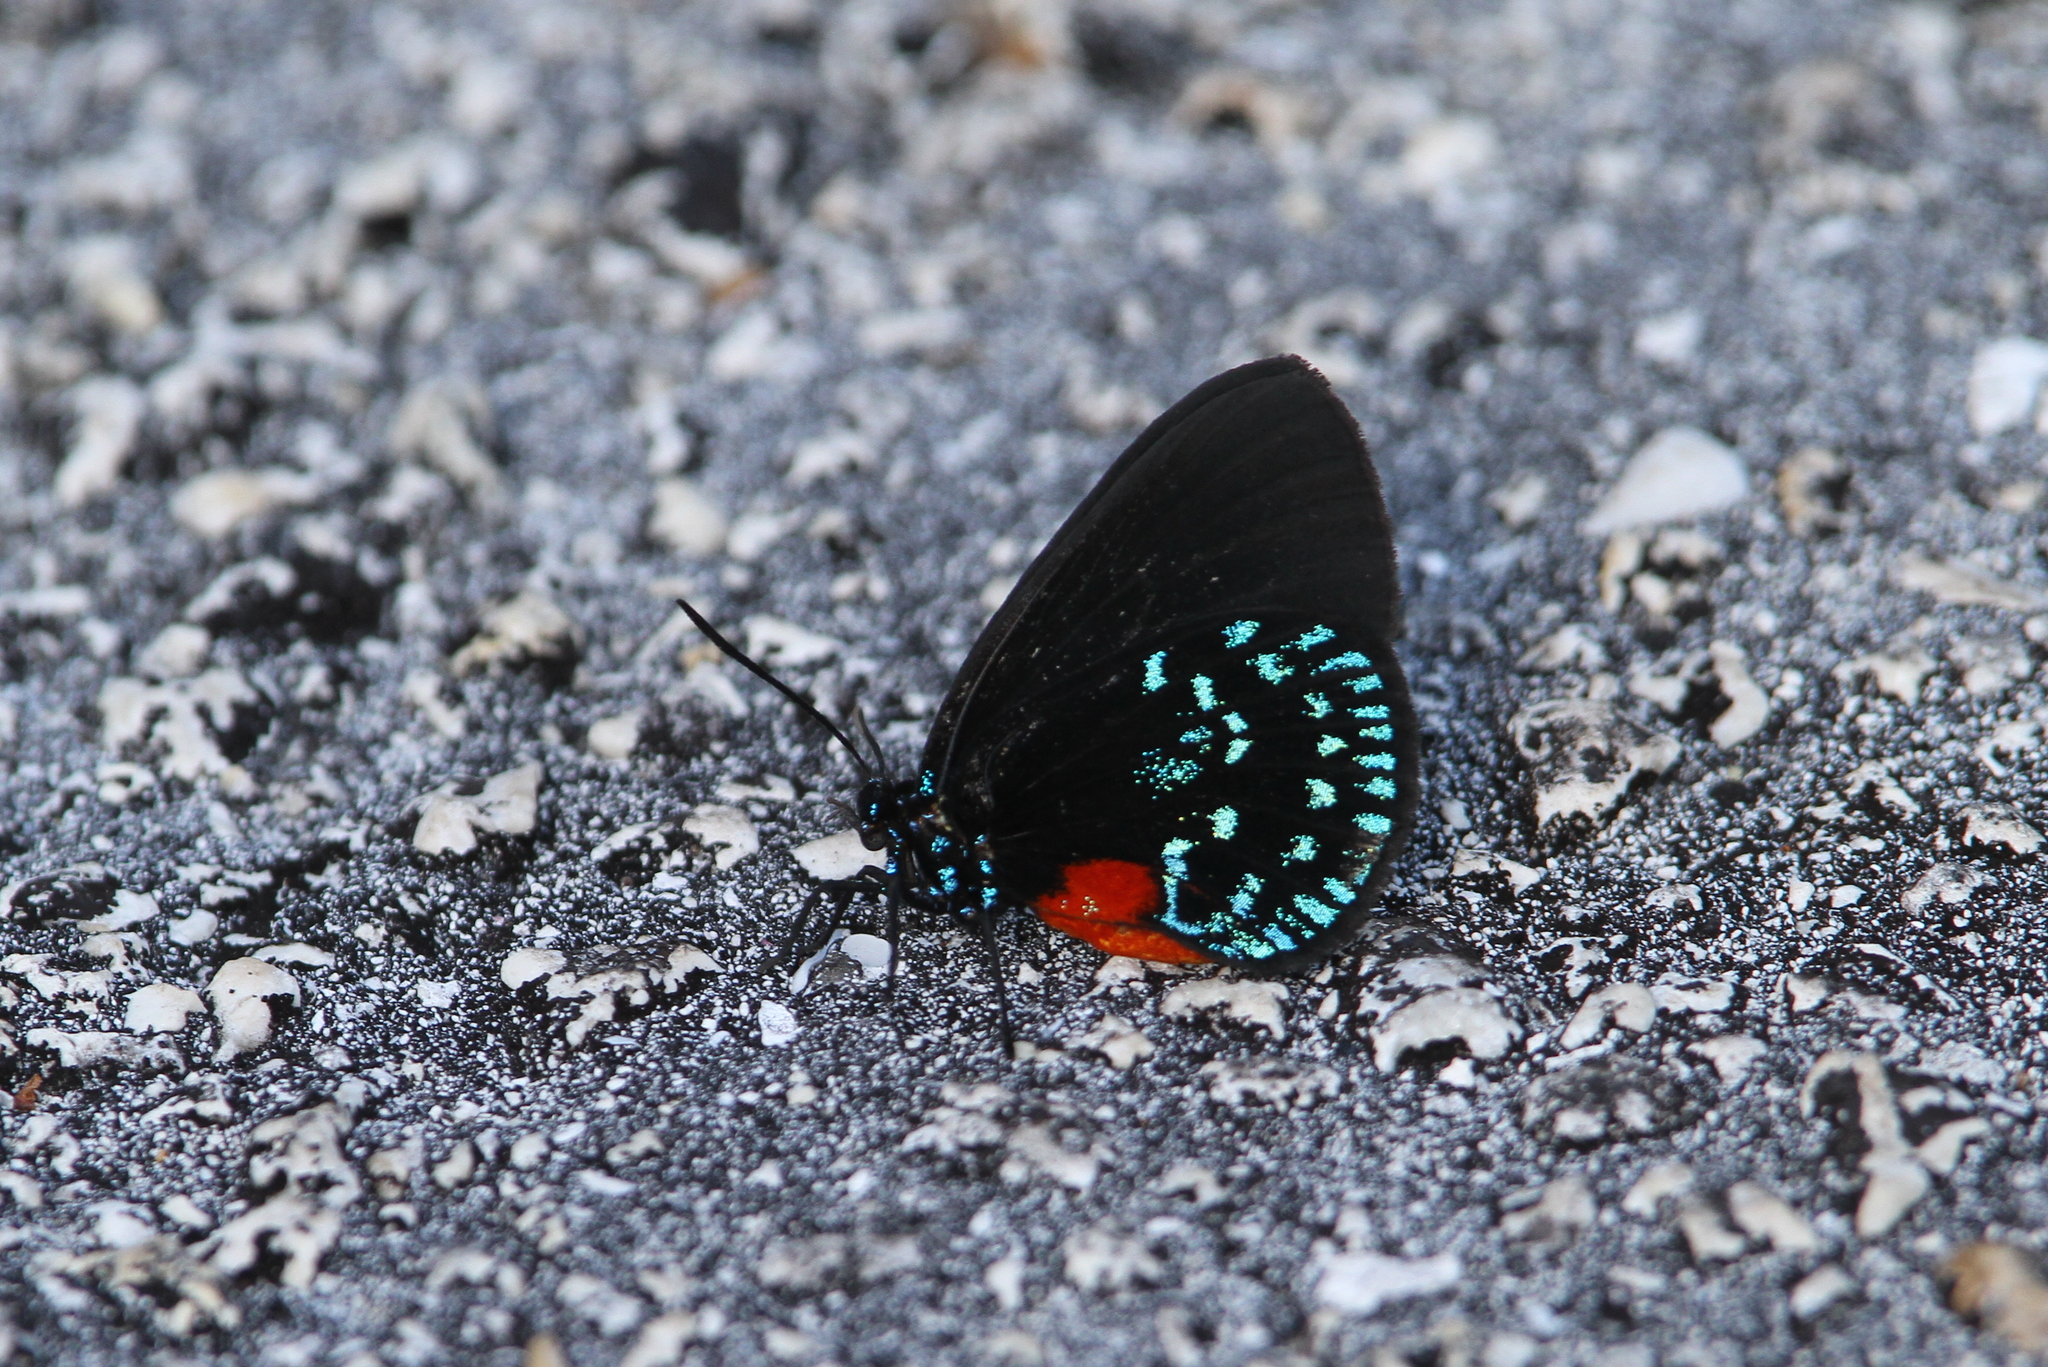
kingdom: Animalia
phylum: Arthropoda
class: Insecta
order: Lepidoptera
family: Lycaenidae
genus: Eumaeus
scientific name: Eumaeus atala
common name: Atala
